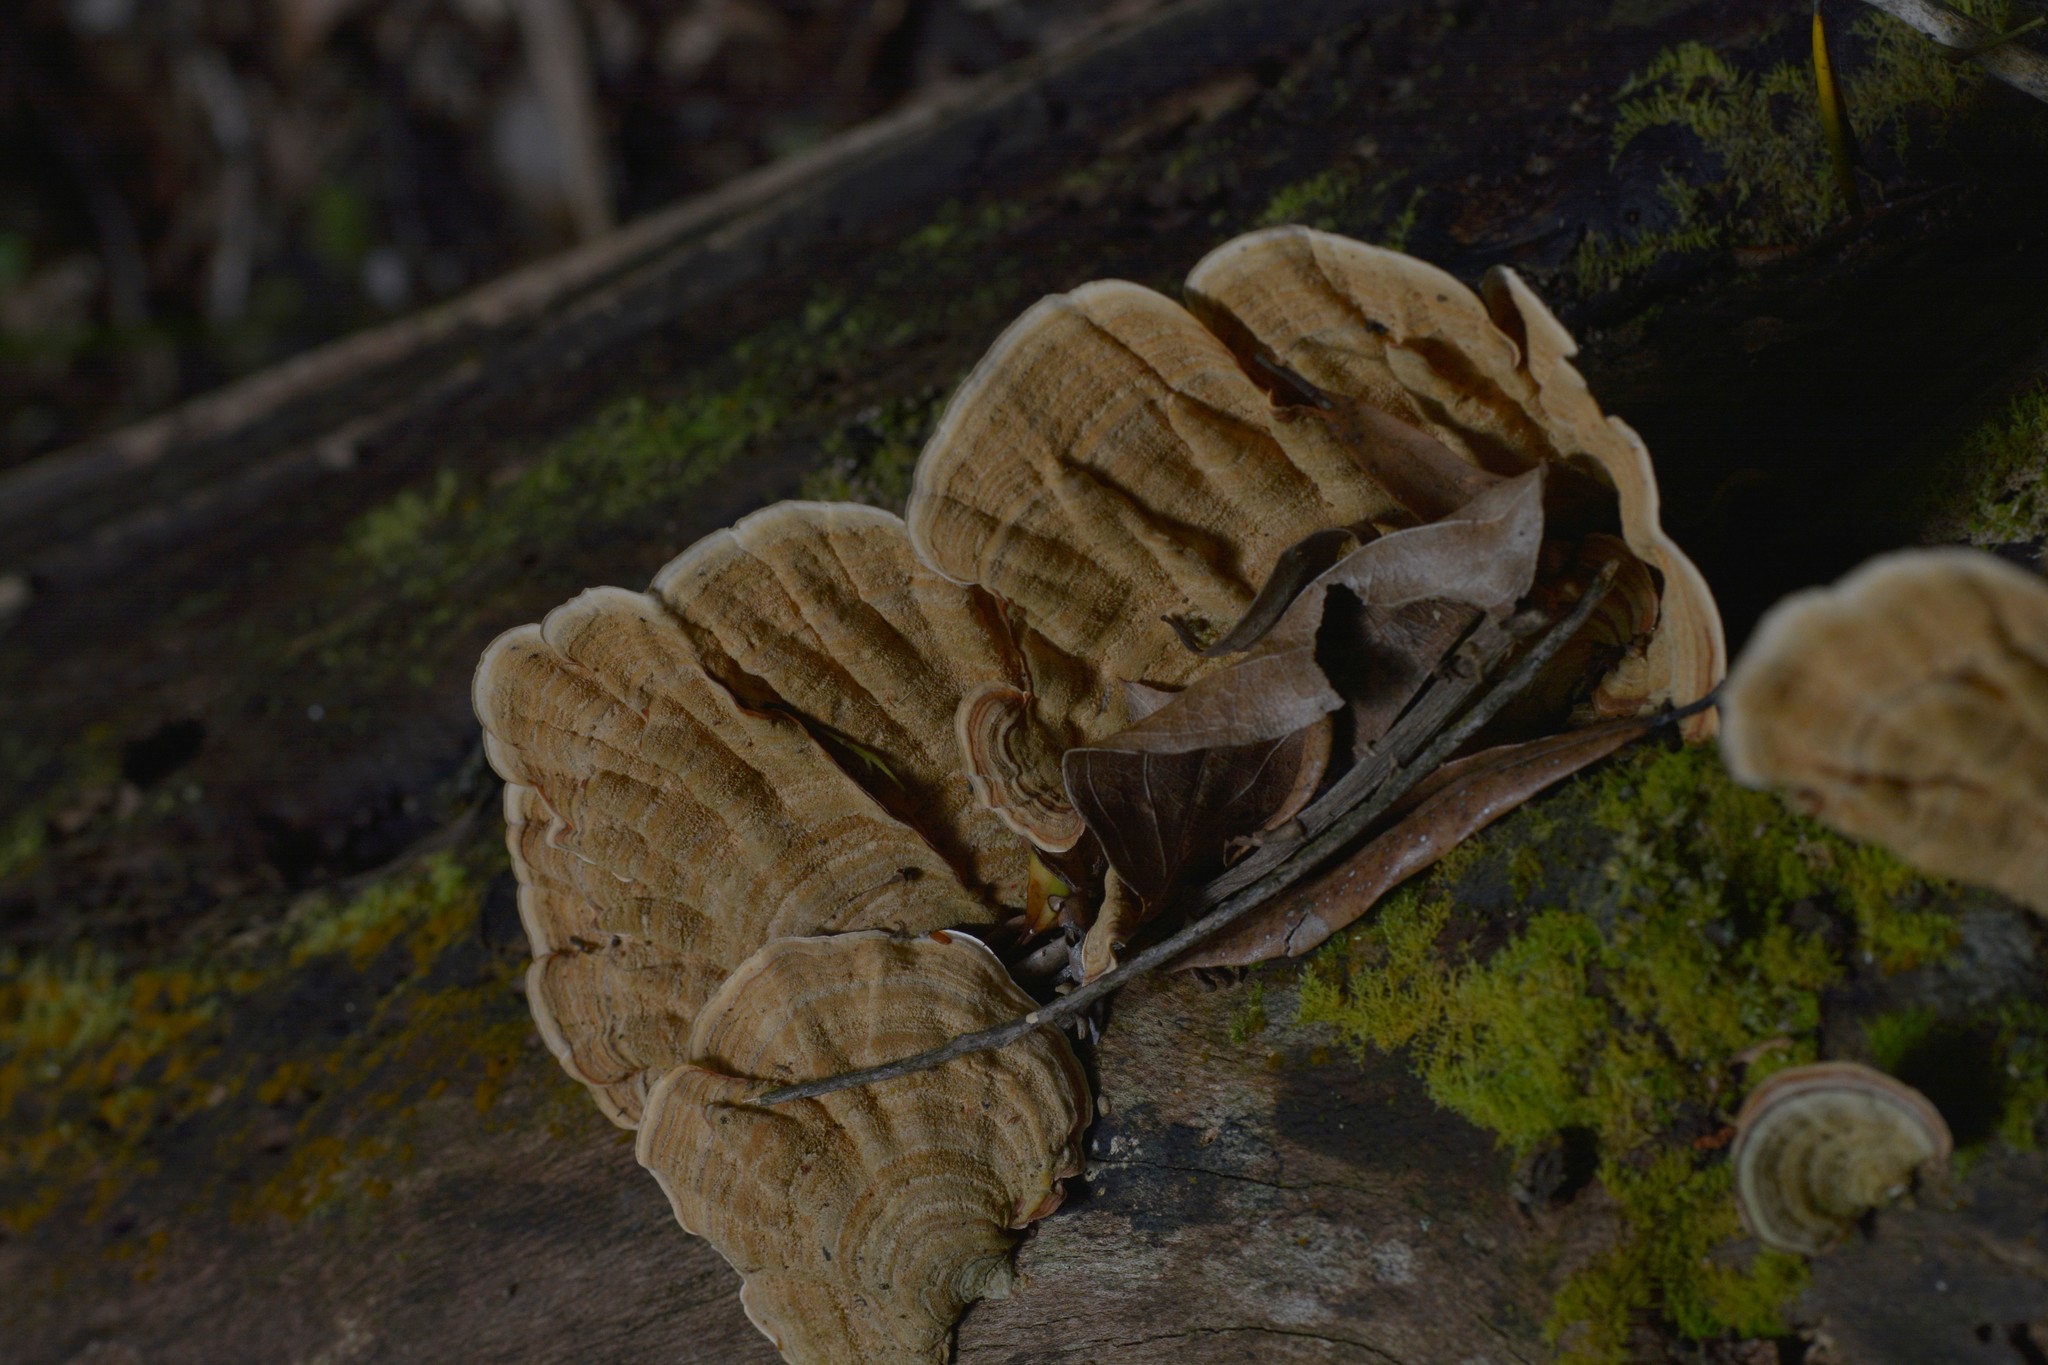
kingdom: Fungi
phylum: Basidiomycota
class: Agaricomycetes
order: Russulales
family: Stereaceae
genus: Stereum
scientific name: Stereum versicolor
